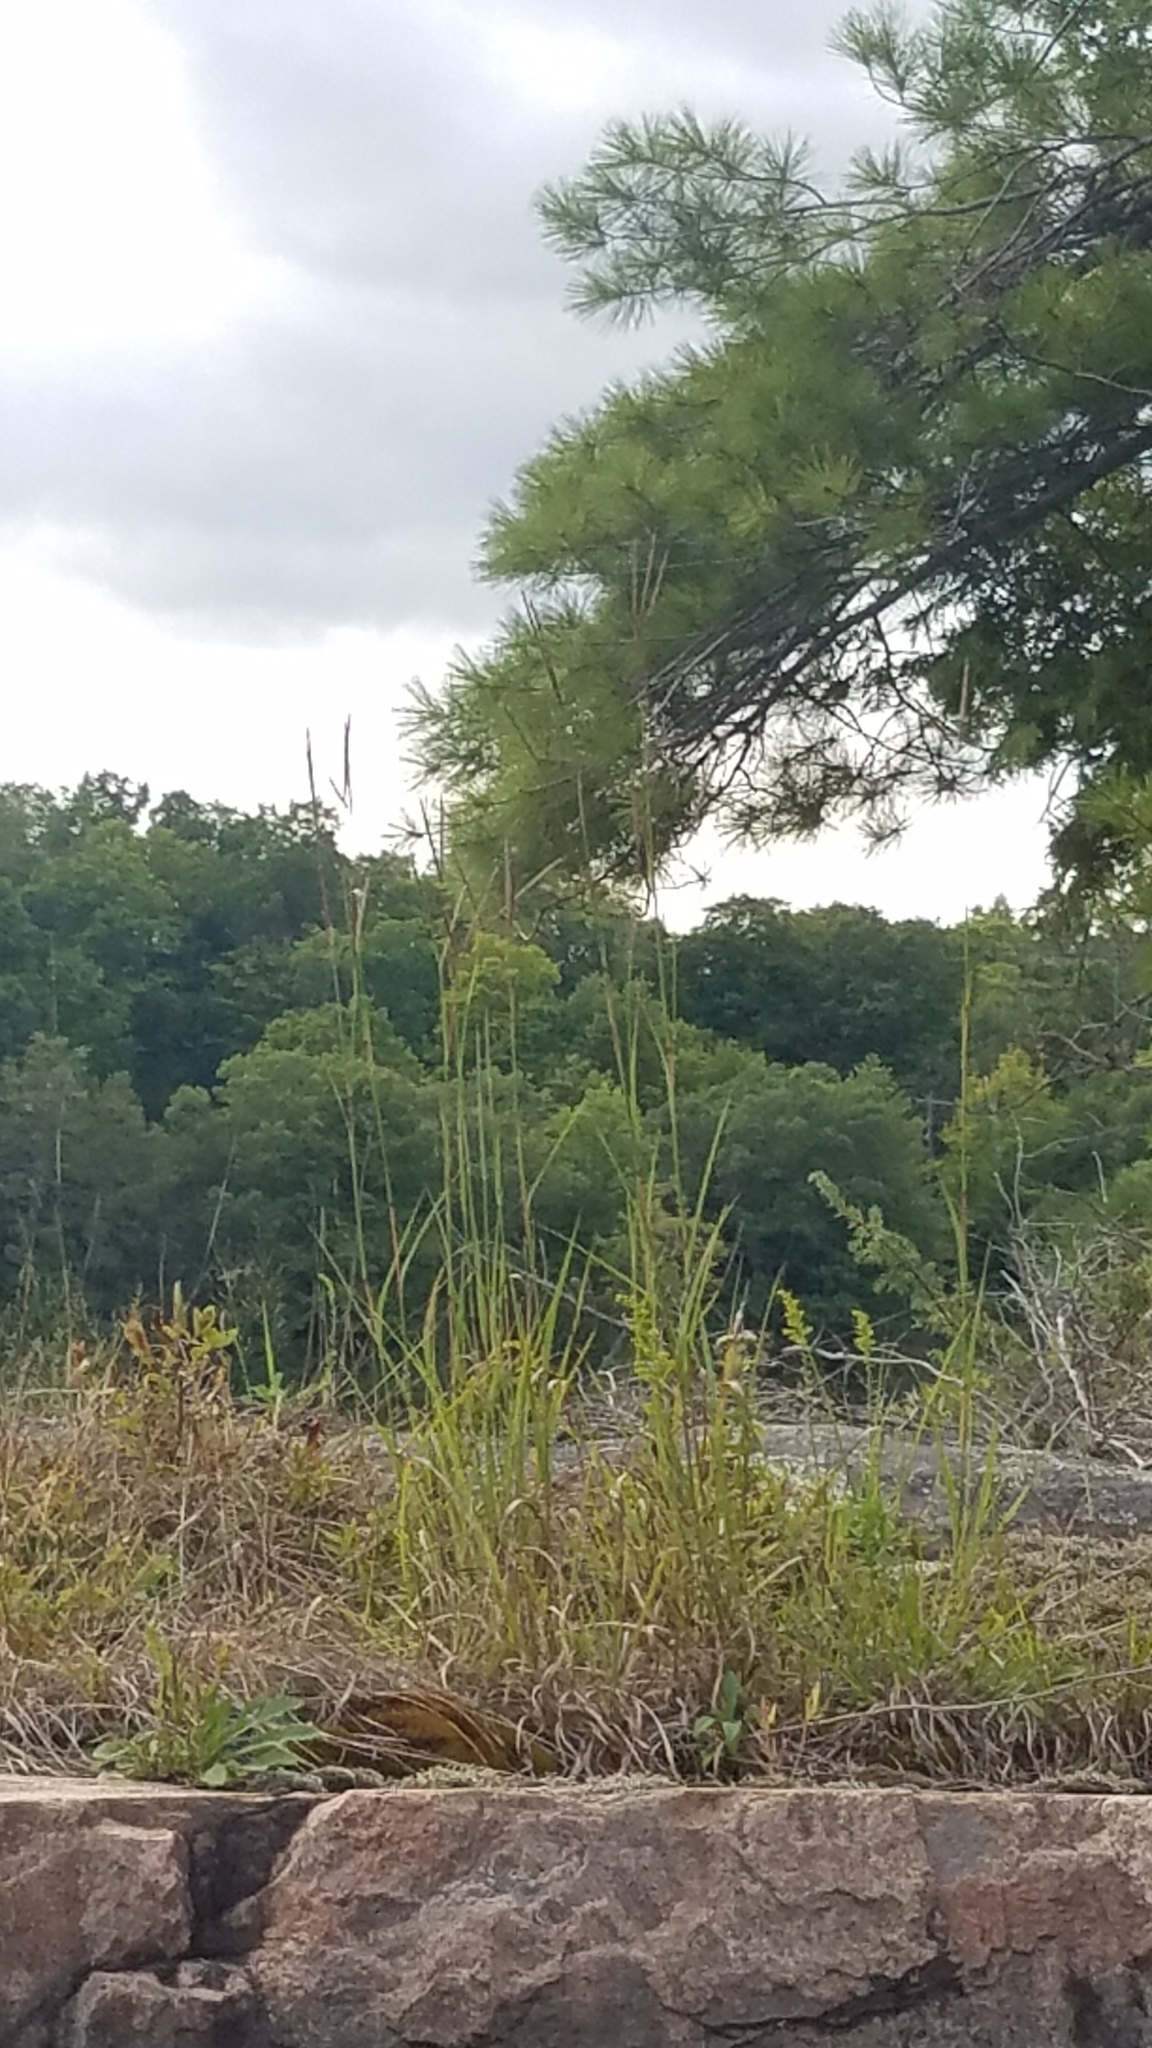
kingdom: Plantae
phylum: Tracheophyta
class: Liliopsida
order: Poales
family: Poaceae
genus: Andropogon
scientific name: Andropogon gerardi
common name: Big bluestem
